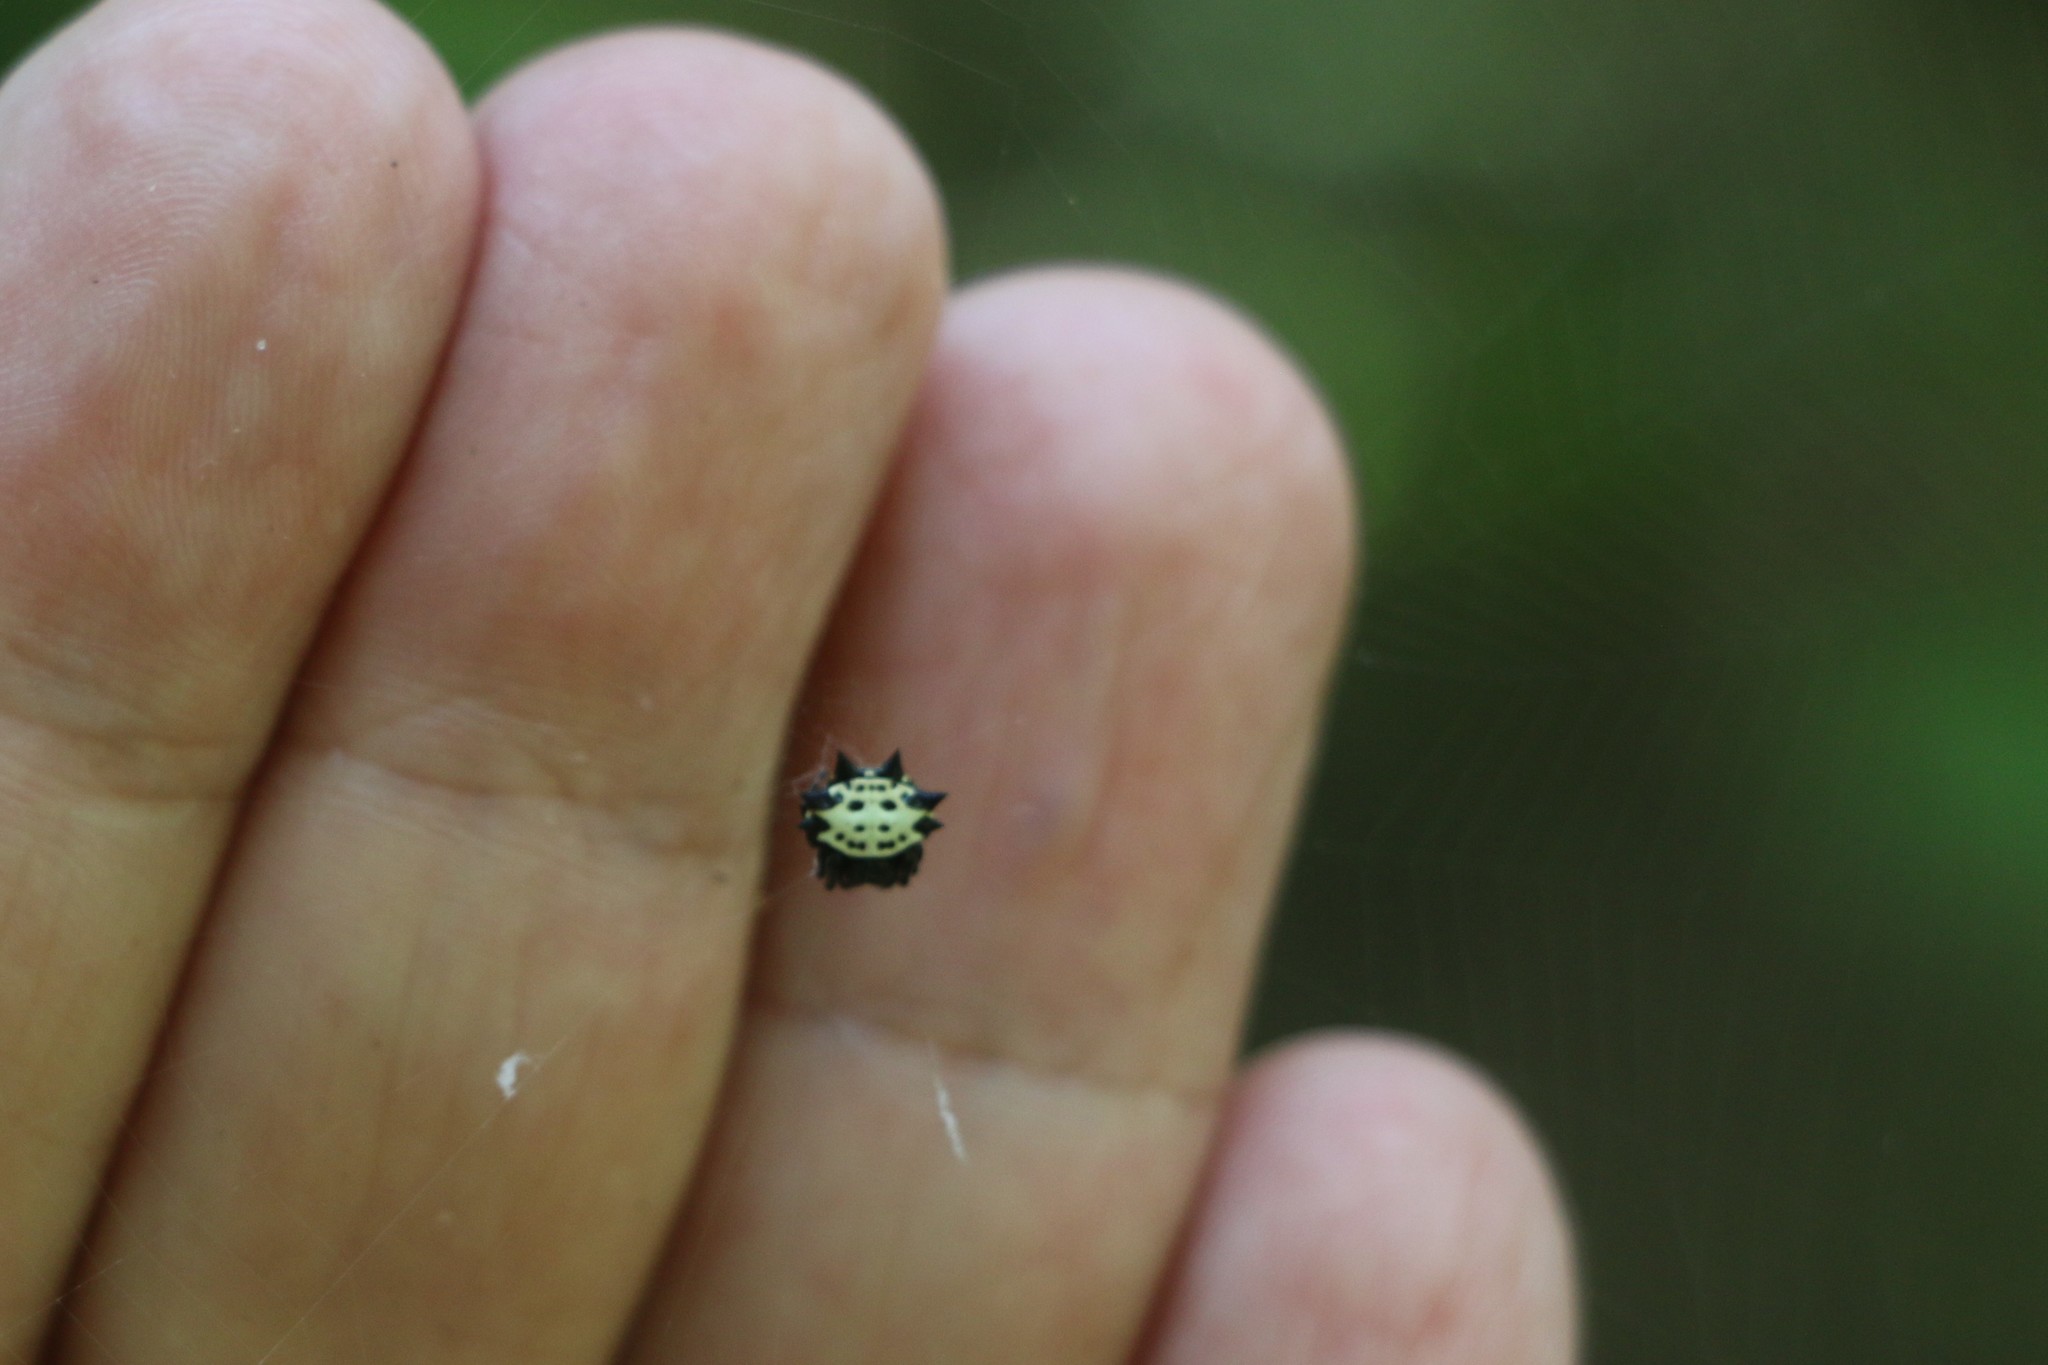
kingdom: Animalia
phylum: Arthropoda
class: Arachnida
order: Araneae
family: Araneidae
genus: Gasteracantha
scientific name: Gasteracantha cancriformis
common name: Orb weavers
